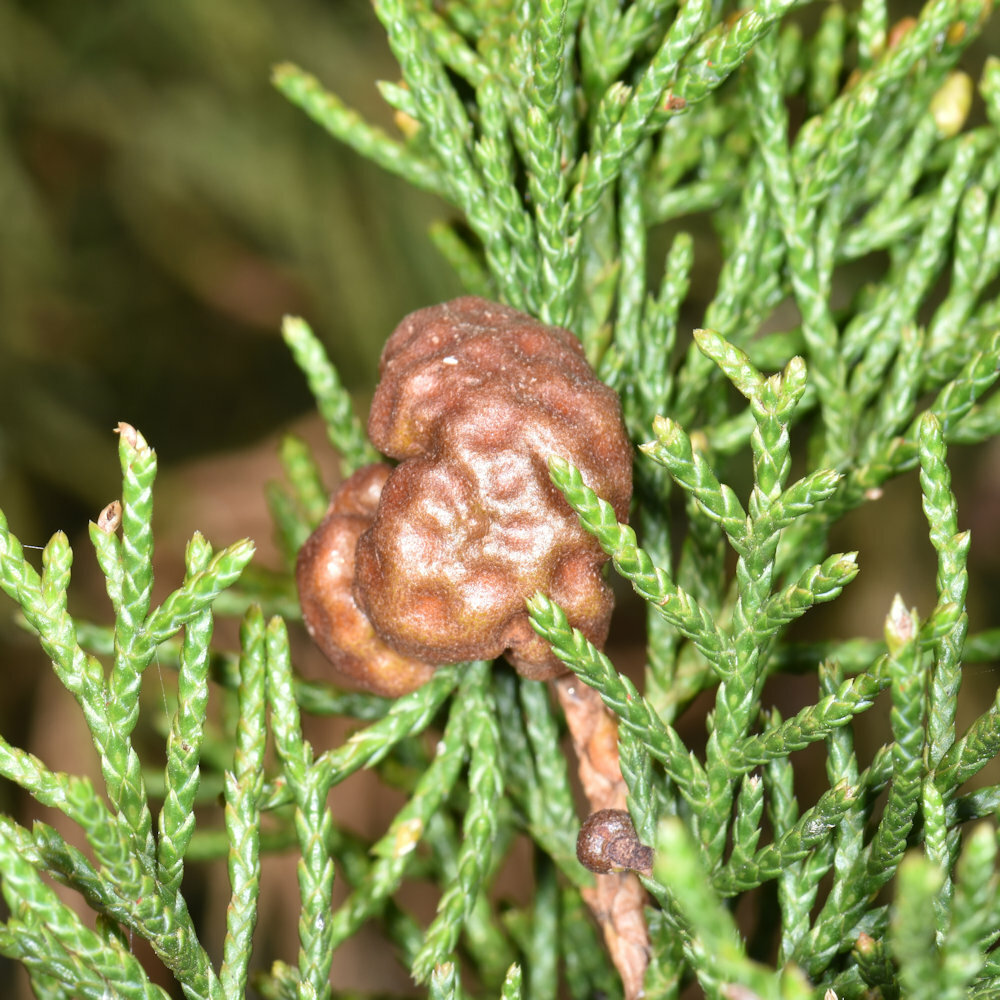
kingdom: Fungi
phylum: Basidiomycota
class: Pucciniomycetes
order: Pucciniales
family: Gymnosporangiaceae
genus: Gymnosporangium
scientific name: Gymnosporangium juniperi-virginianae
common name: Juniper-apple rust
